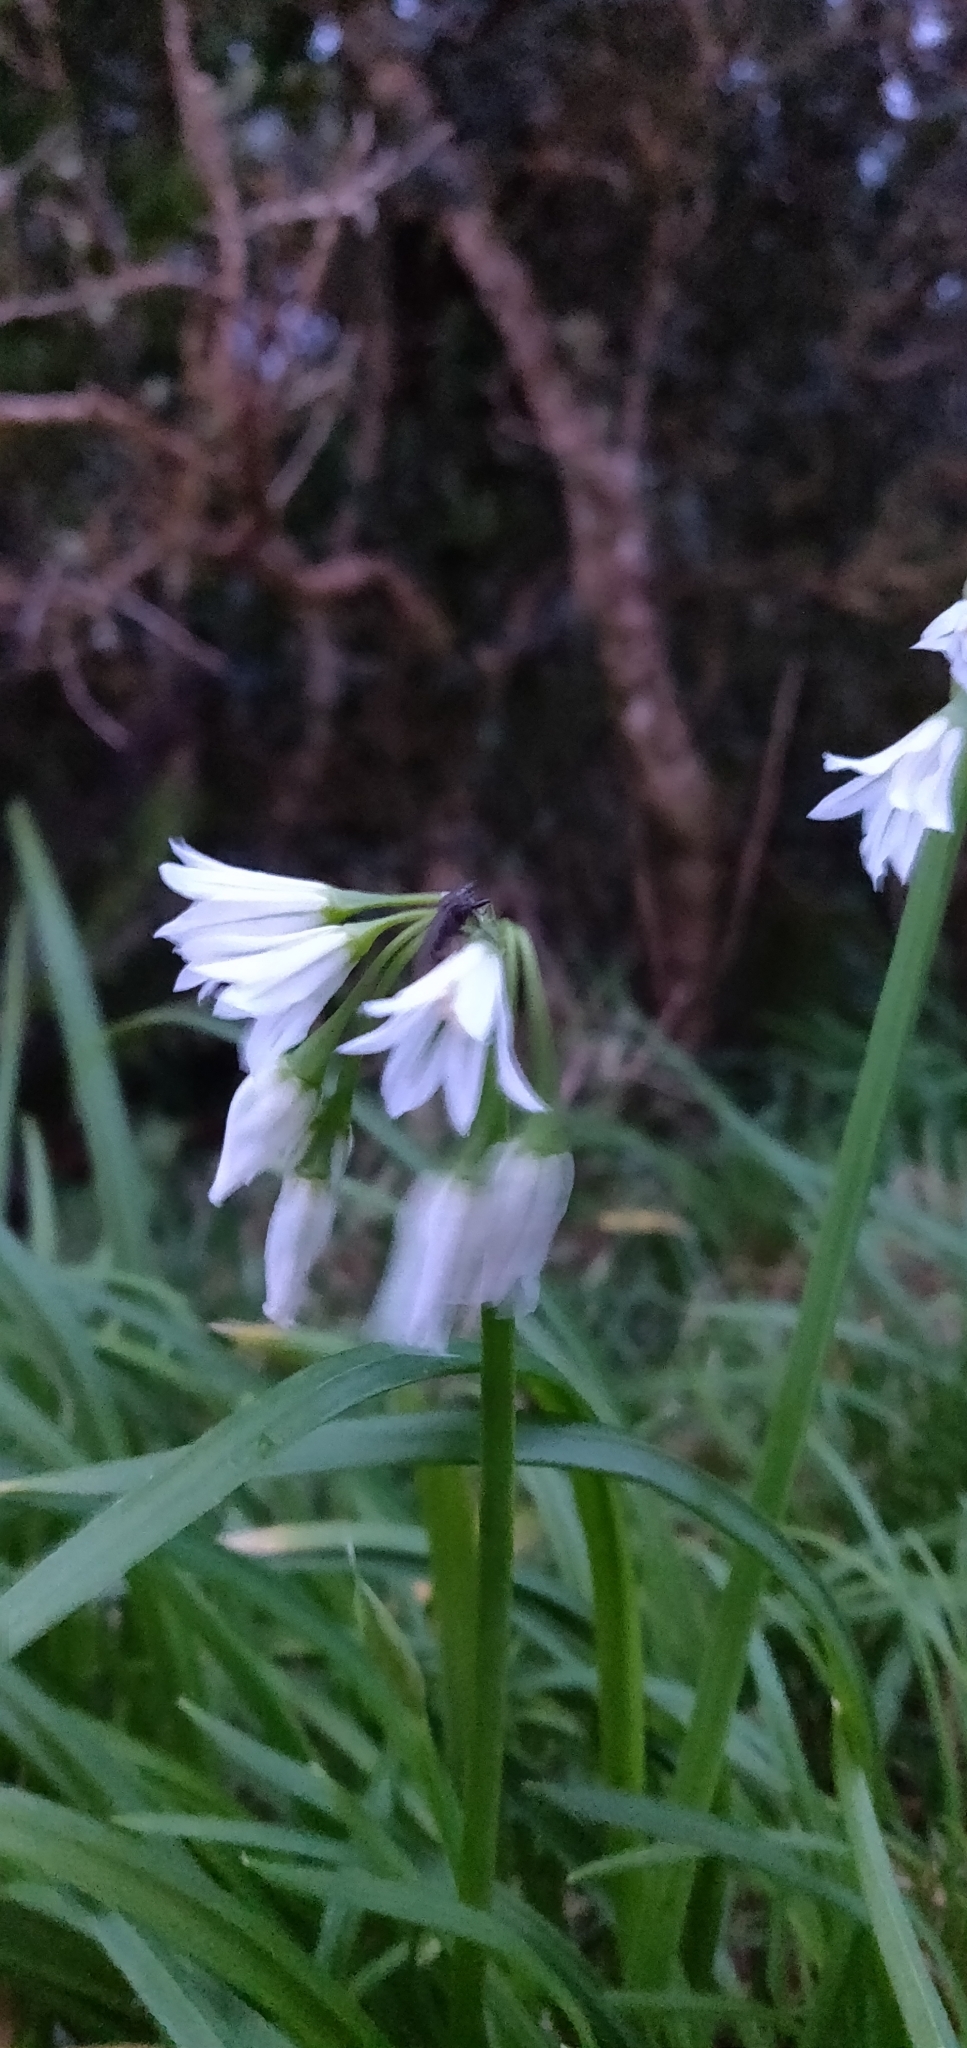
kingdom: Plantae
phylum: Tracheophyta
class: Liliopsida
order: Asparagales
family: Amaryllidaceae
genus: Allium
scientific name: Allium triquetrum
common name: Three-cornered garlic
